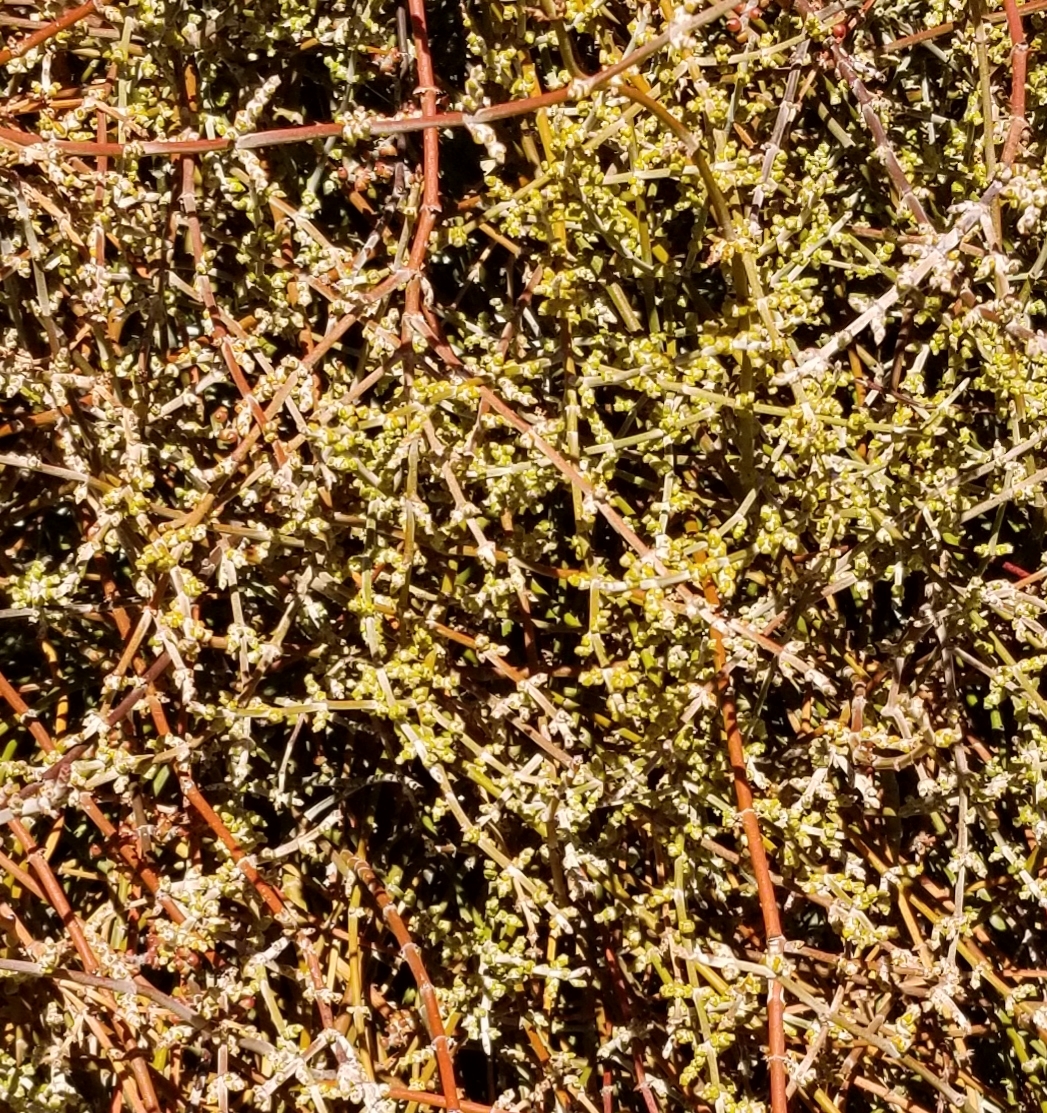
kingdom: Plantae
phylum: Tracheophyta
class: Magnoliopsida
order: Santalales
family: Viscaceae
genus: Phoradendron
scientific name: Phoradendron californicum
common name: Acacia mistletoe
